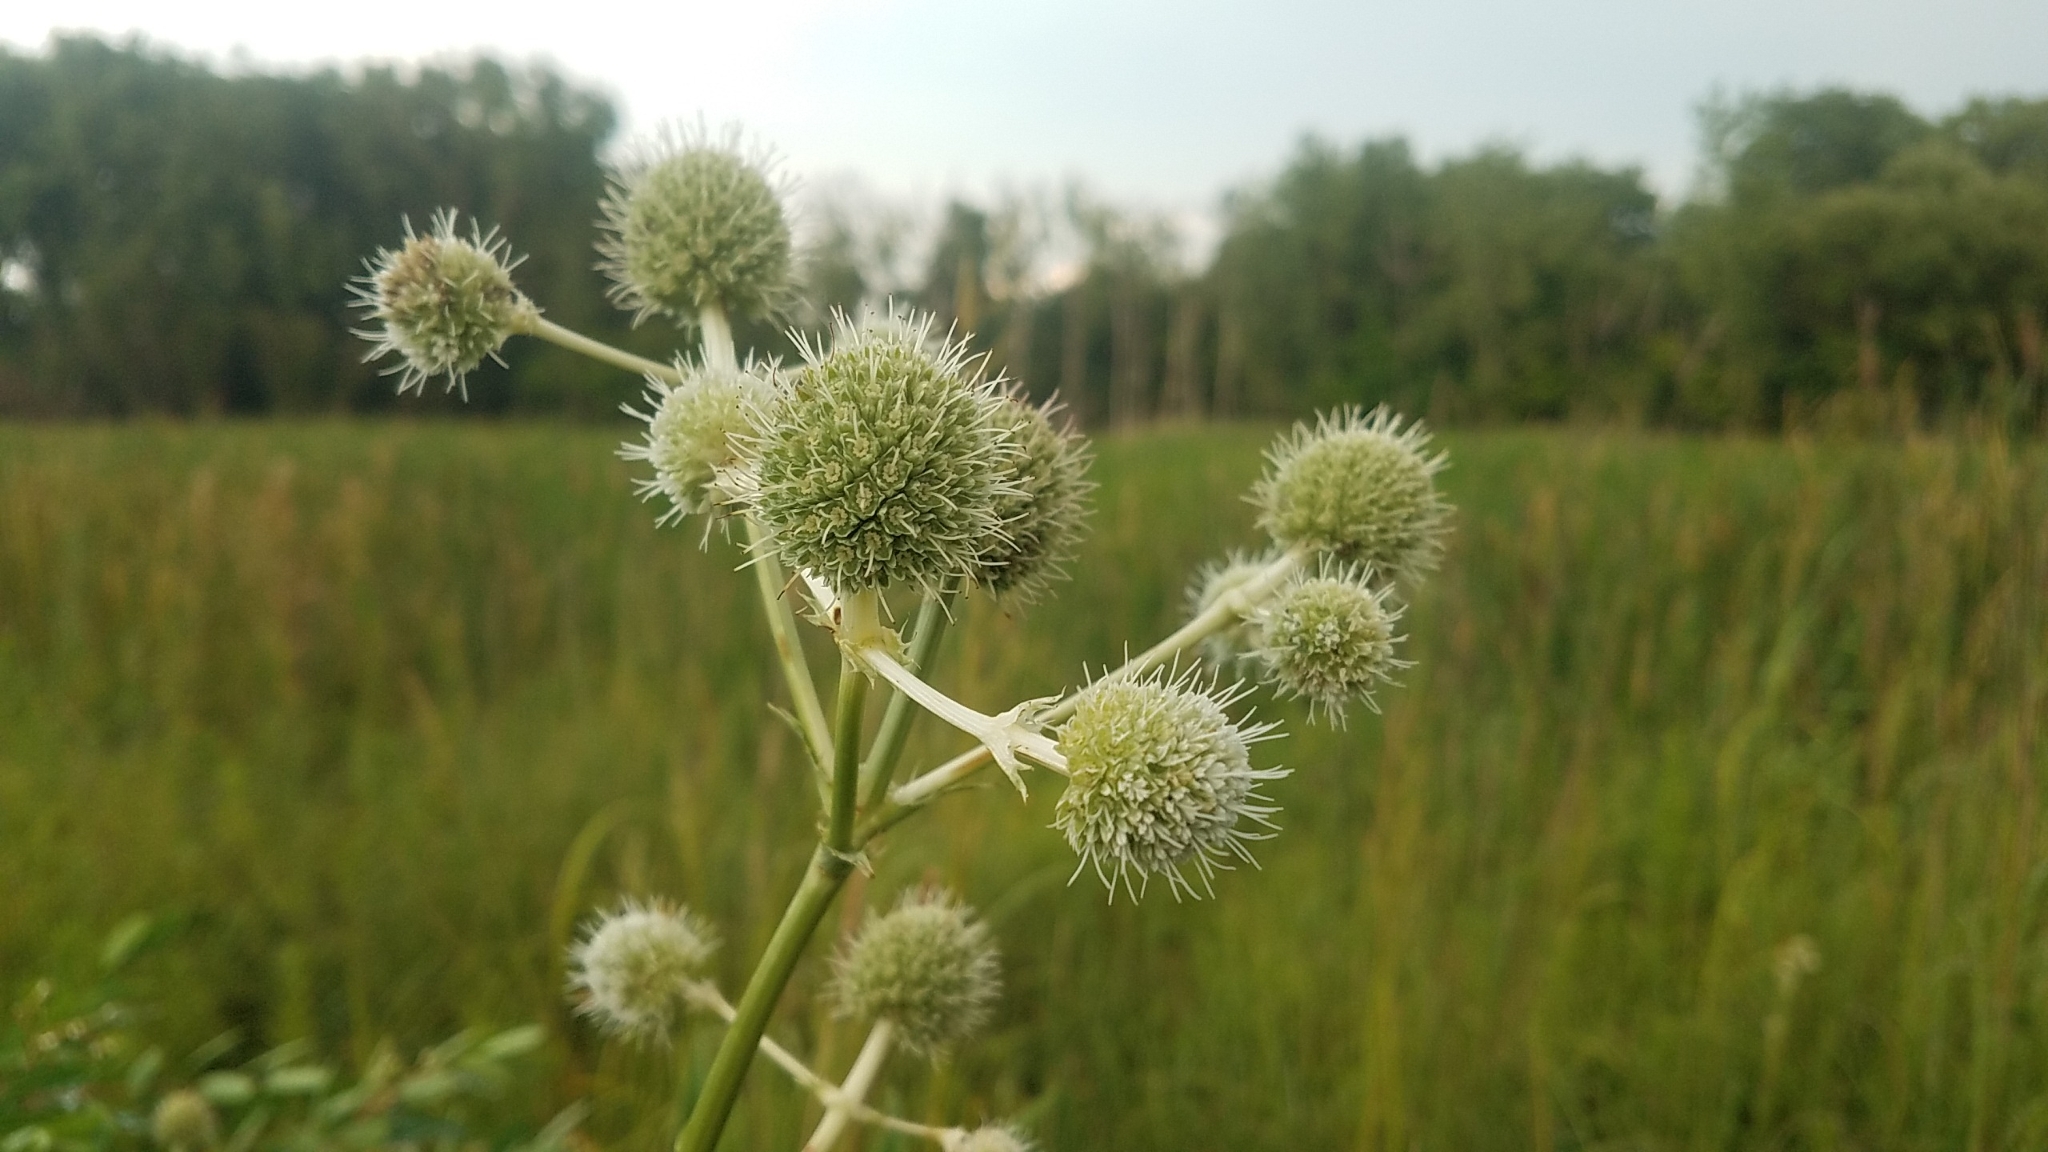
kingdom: Plantae
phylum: Tracheophyta
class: Magnoliopsida
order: Apiales
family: Apiaceae
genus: Eryngium
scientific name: Eryngium yuccifolium
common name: Button eryngo
